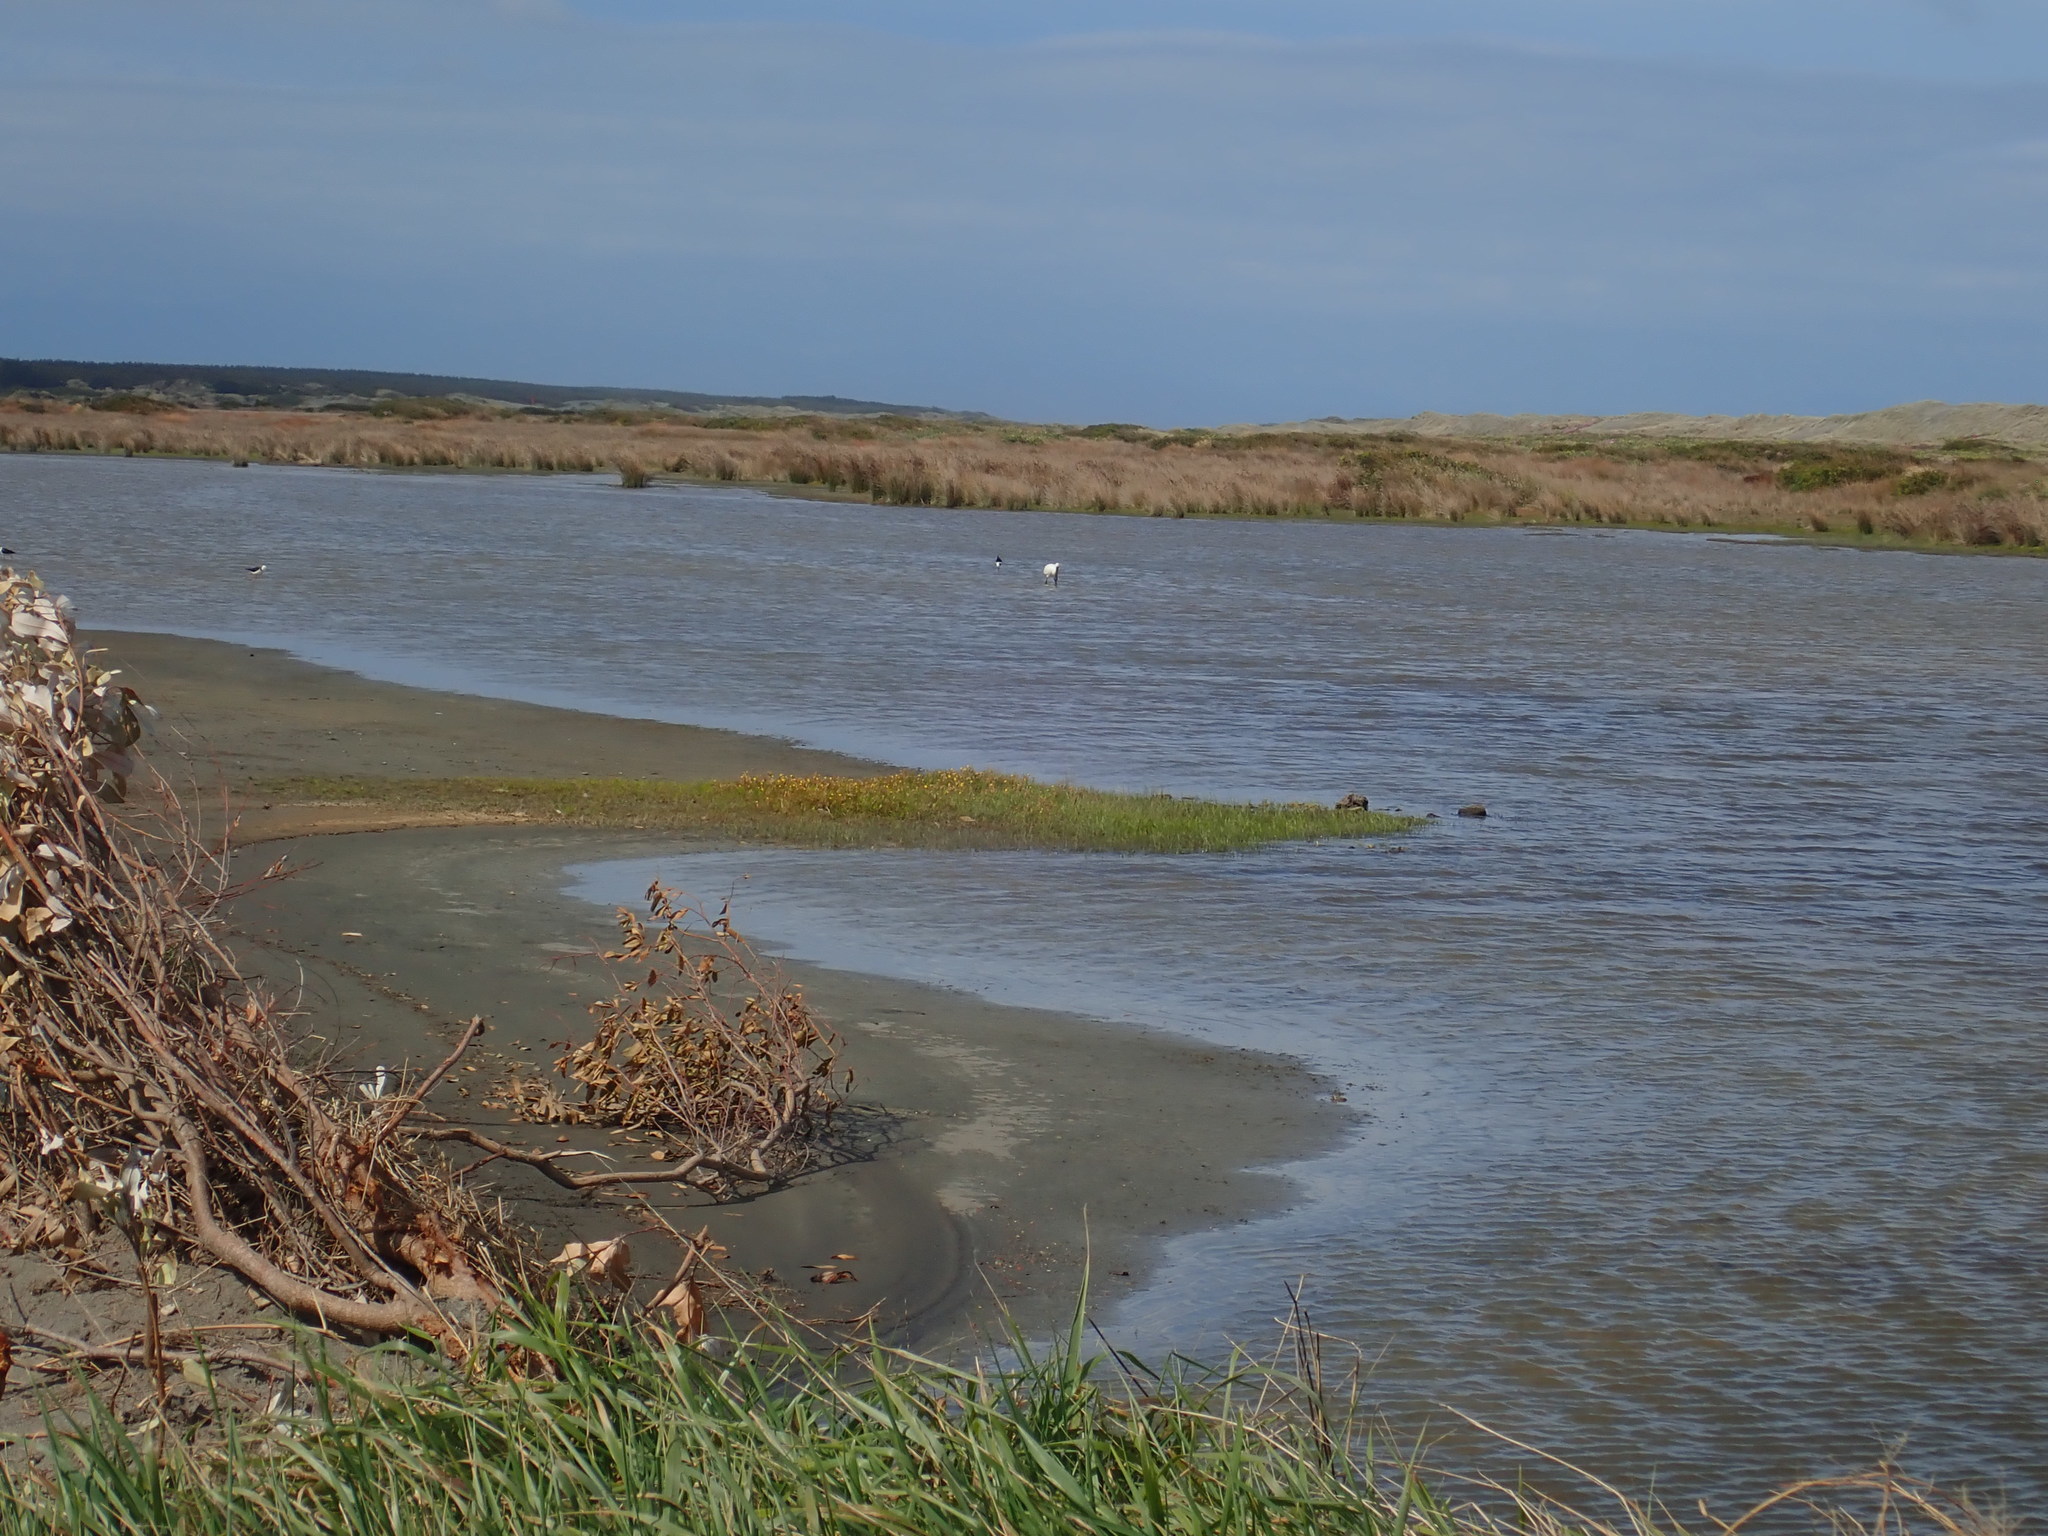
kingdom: Animalia
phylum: Chordata
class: Aves
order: Pelecaniformes
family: Threskiornithidae
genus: Platalea
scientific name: Platalea regia
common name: Royal spoonbill
